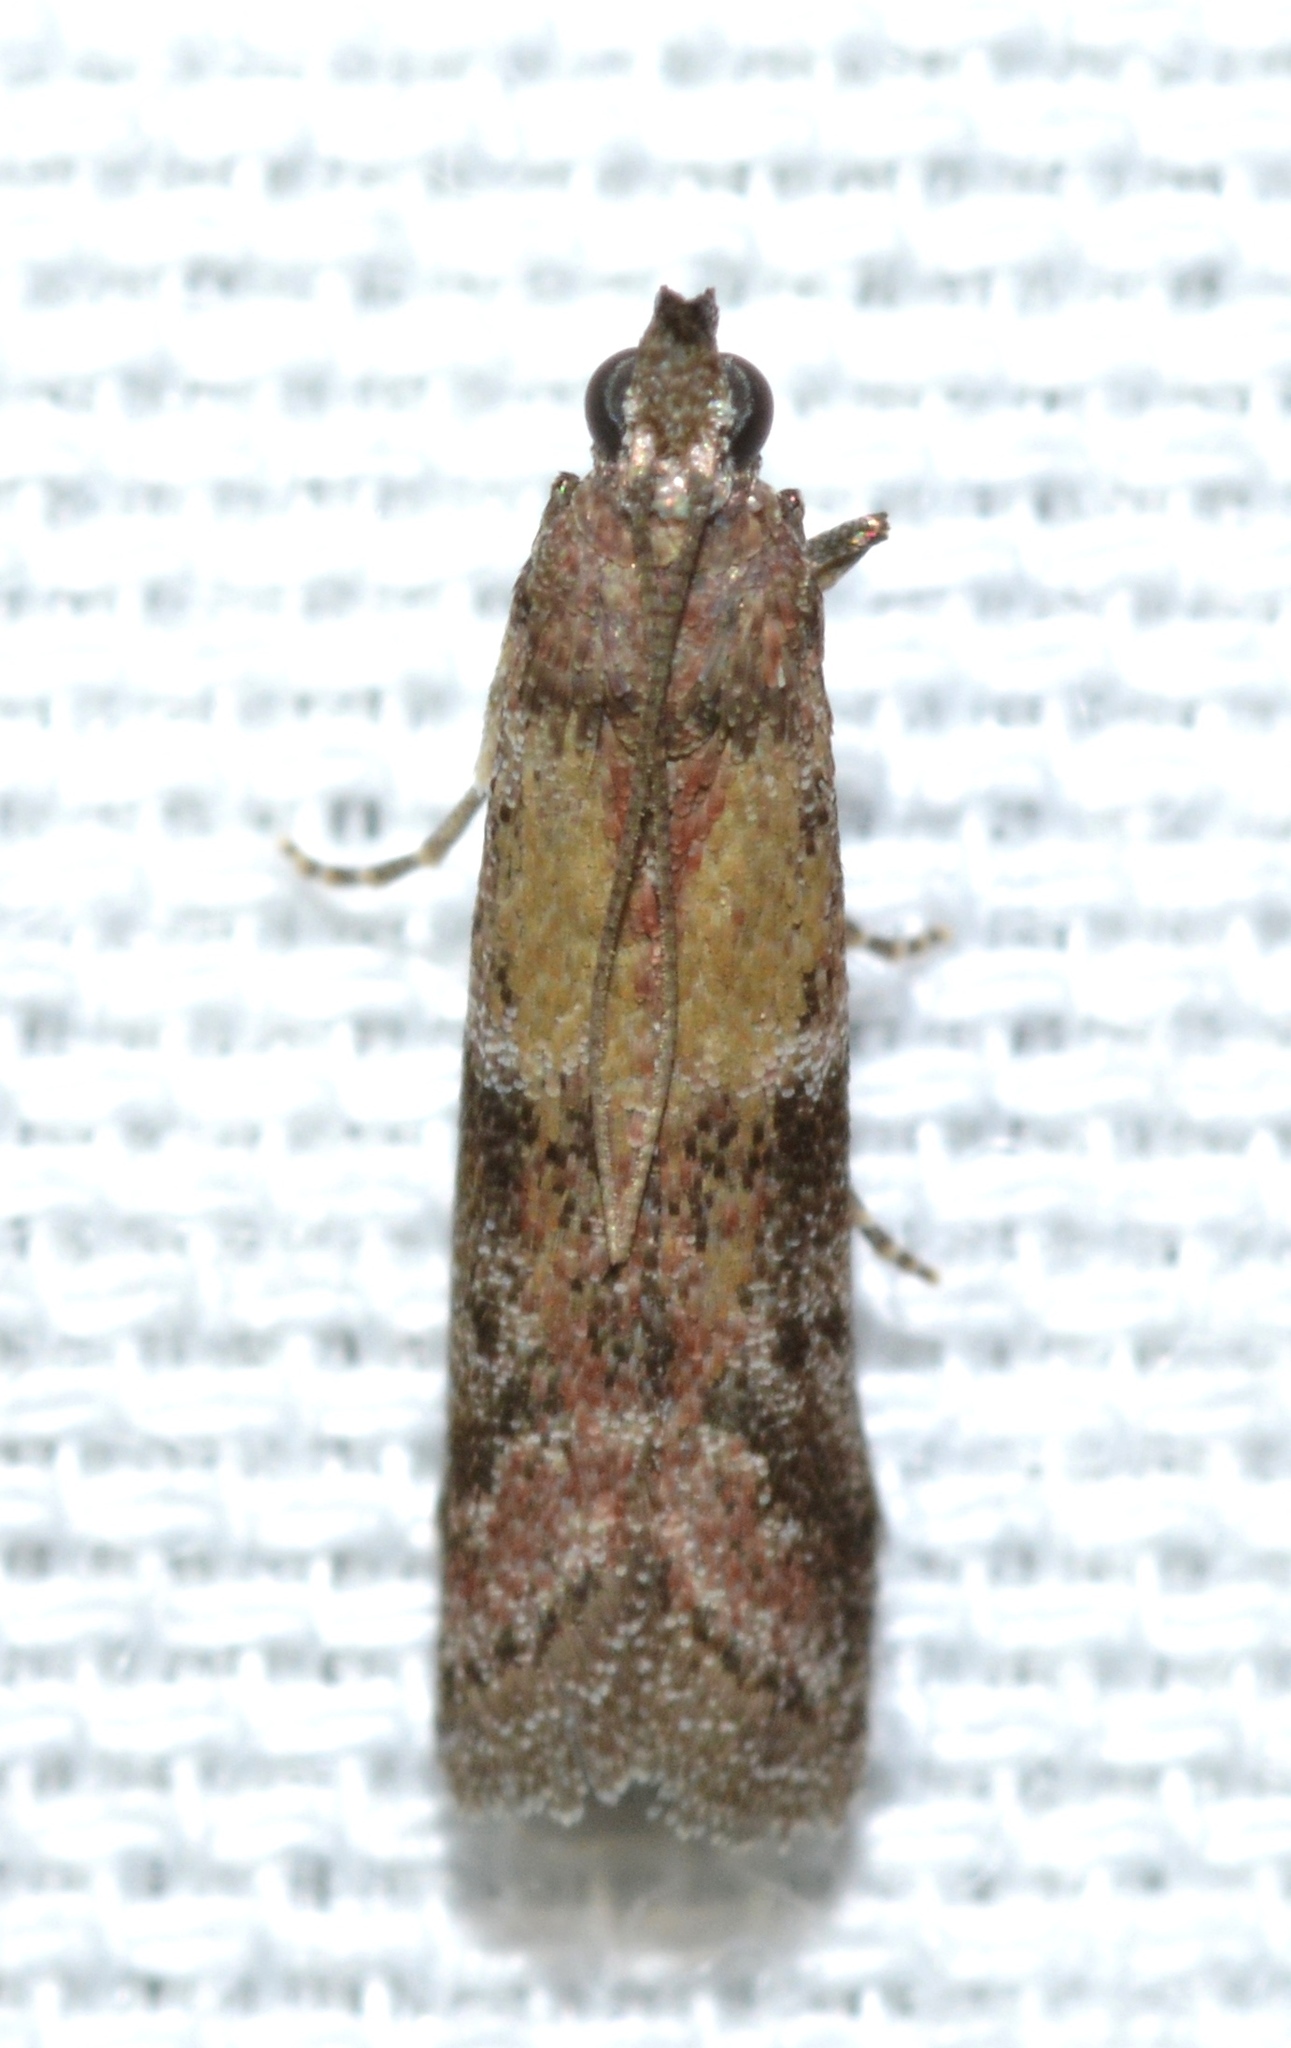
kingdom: Animalia
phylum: Arthropoda
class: Insecta
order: Lepidoptera
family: Pyralidae
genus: Ephestiodes
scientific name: Ephestiodes infimella
